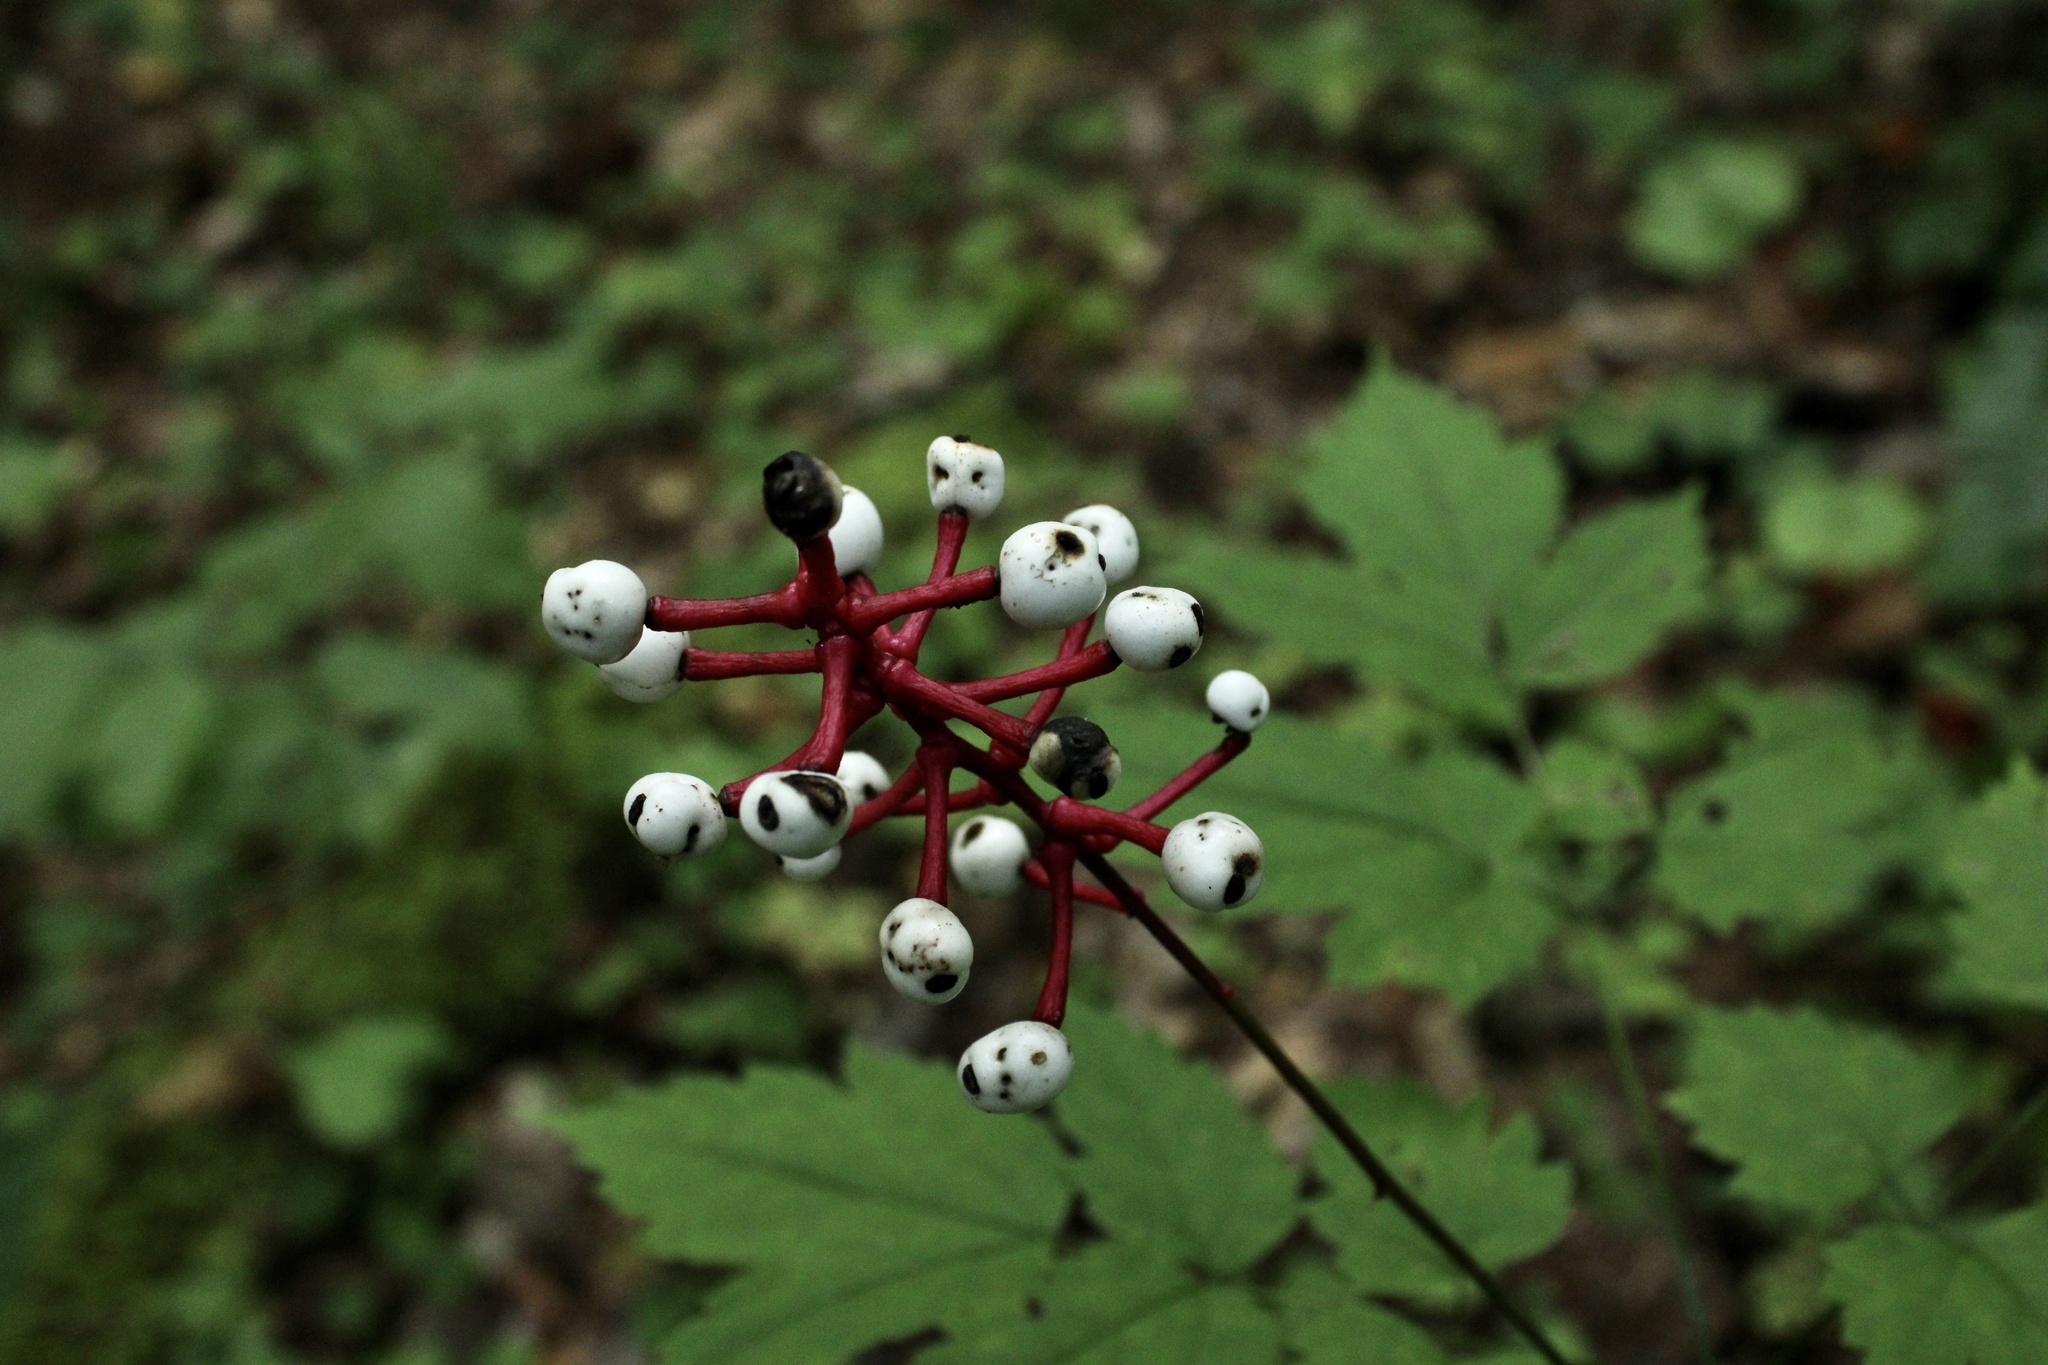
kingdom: Plantae
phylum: Tracheophyta
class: Magnoliopsida
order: Ranunculales
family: Ranunculaceae
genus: Actaea
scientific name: Actaea pachypoda
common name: Doll's-eyes
